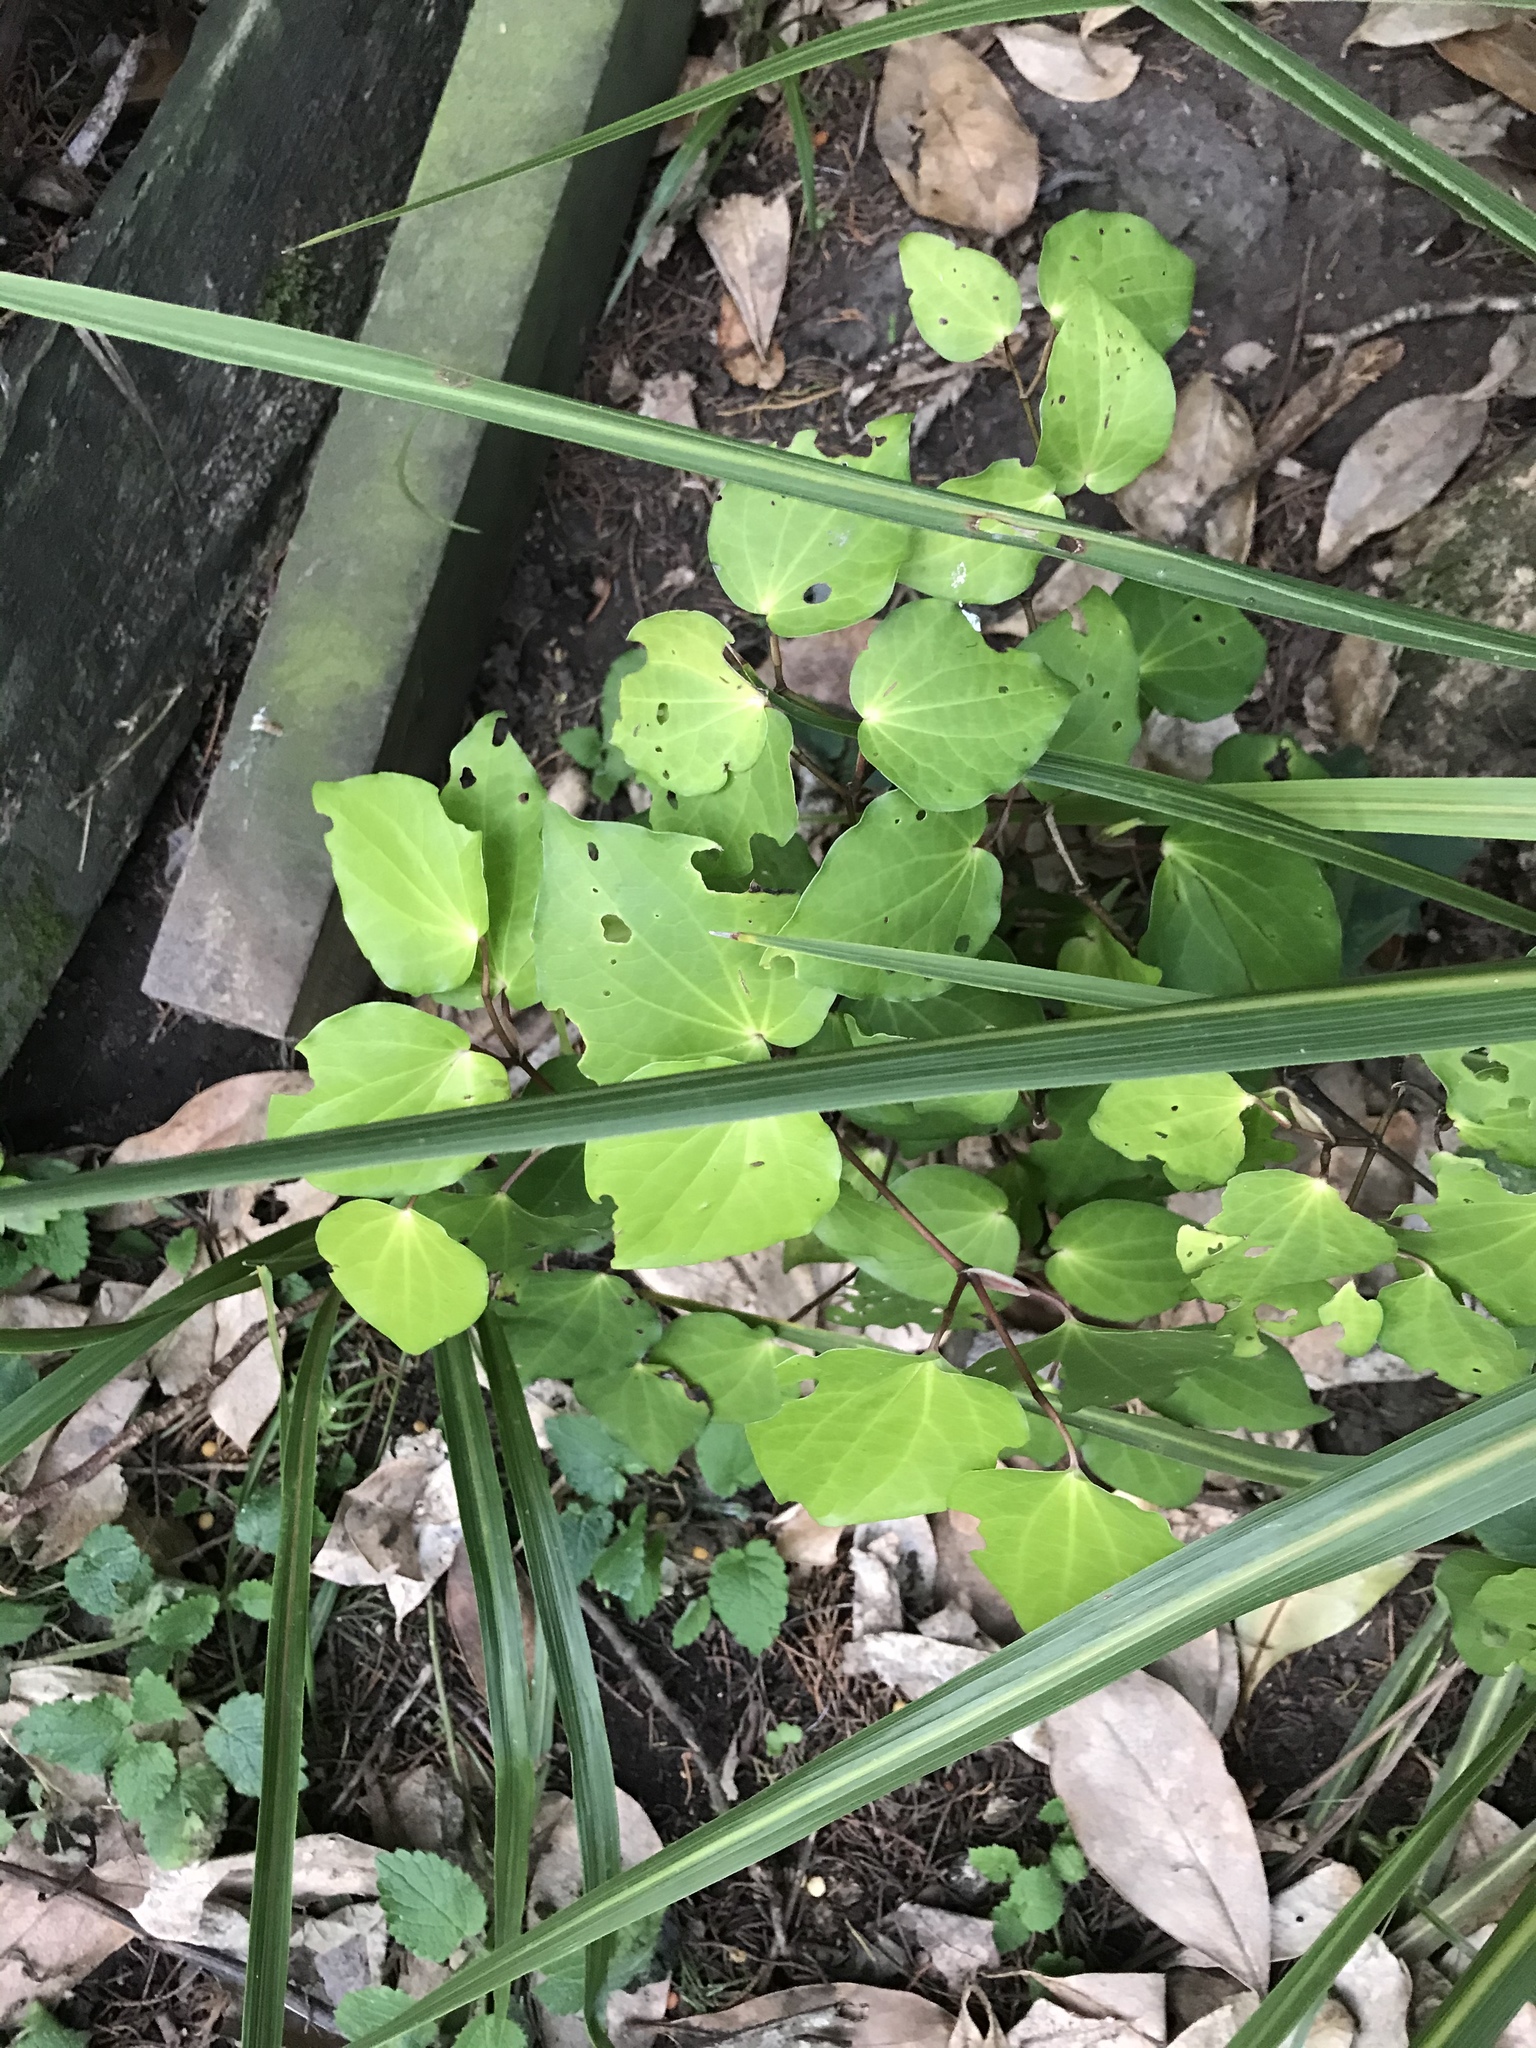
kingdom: Plantae
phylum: Tracheophyta
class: Magnoliopsida
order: Piperales
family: Piperaceae
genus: Macropiper
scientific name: Macropiper excelsum
